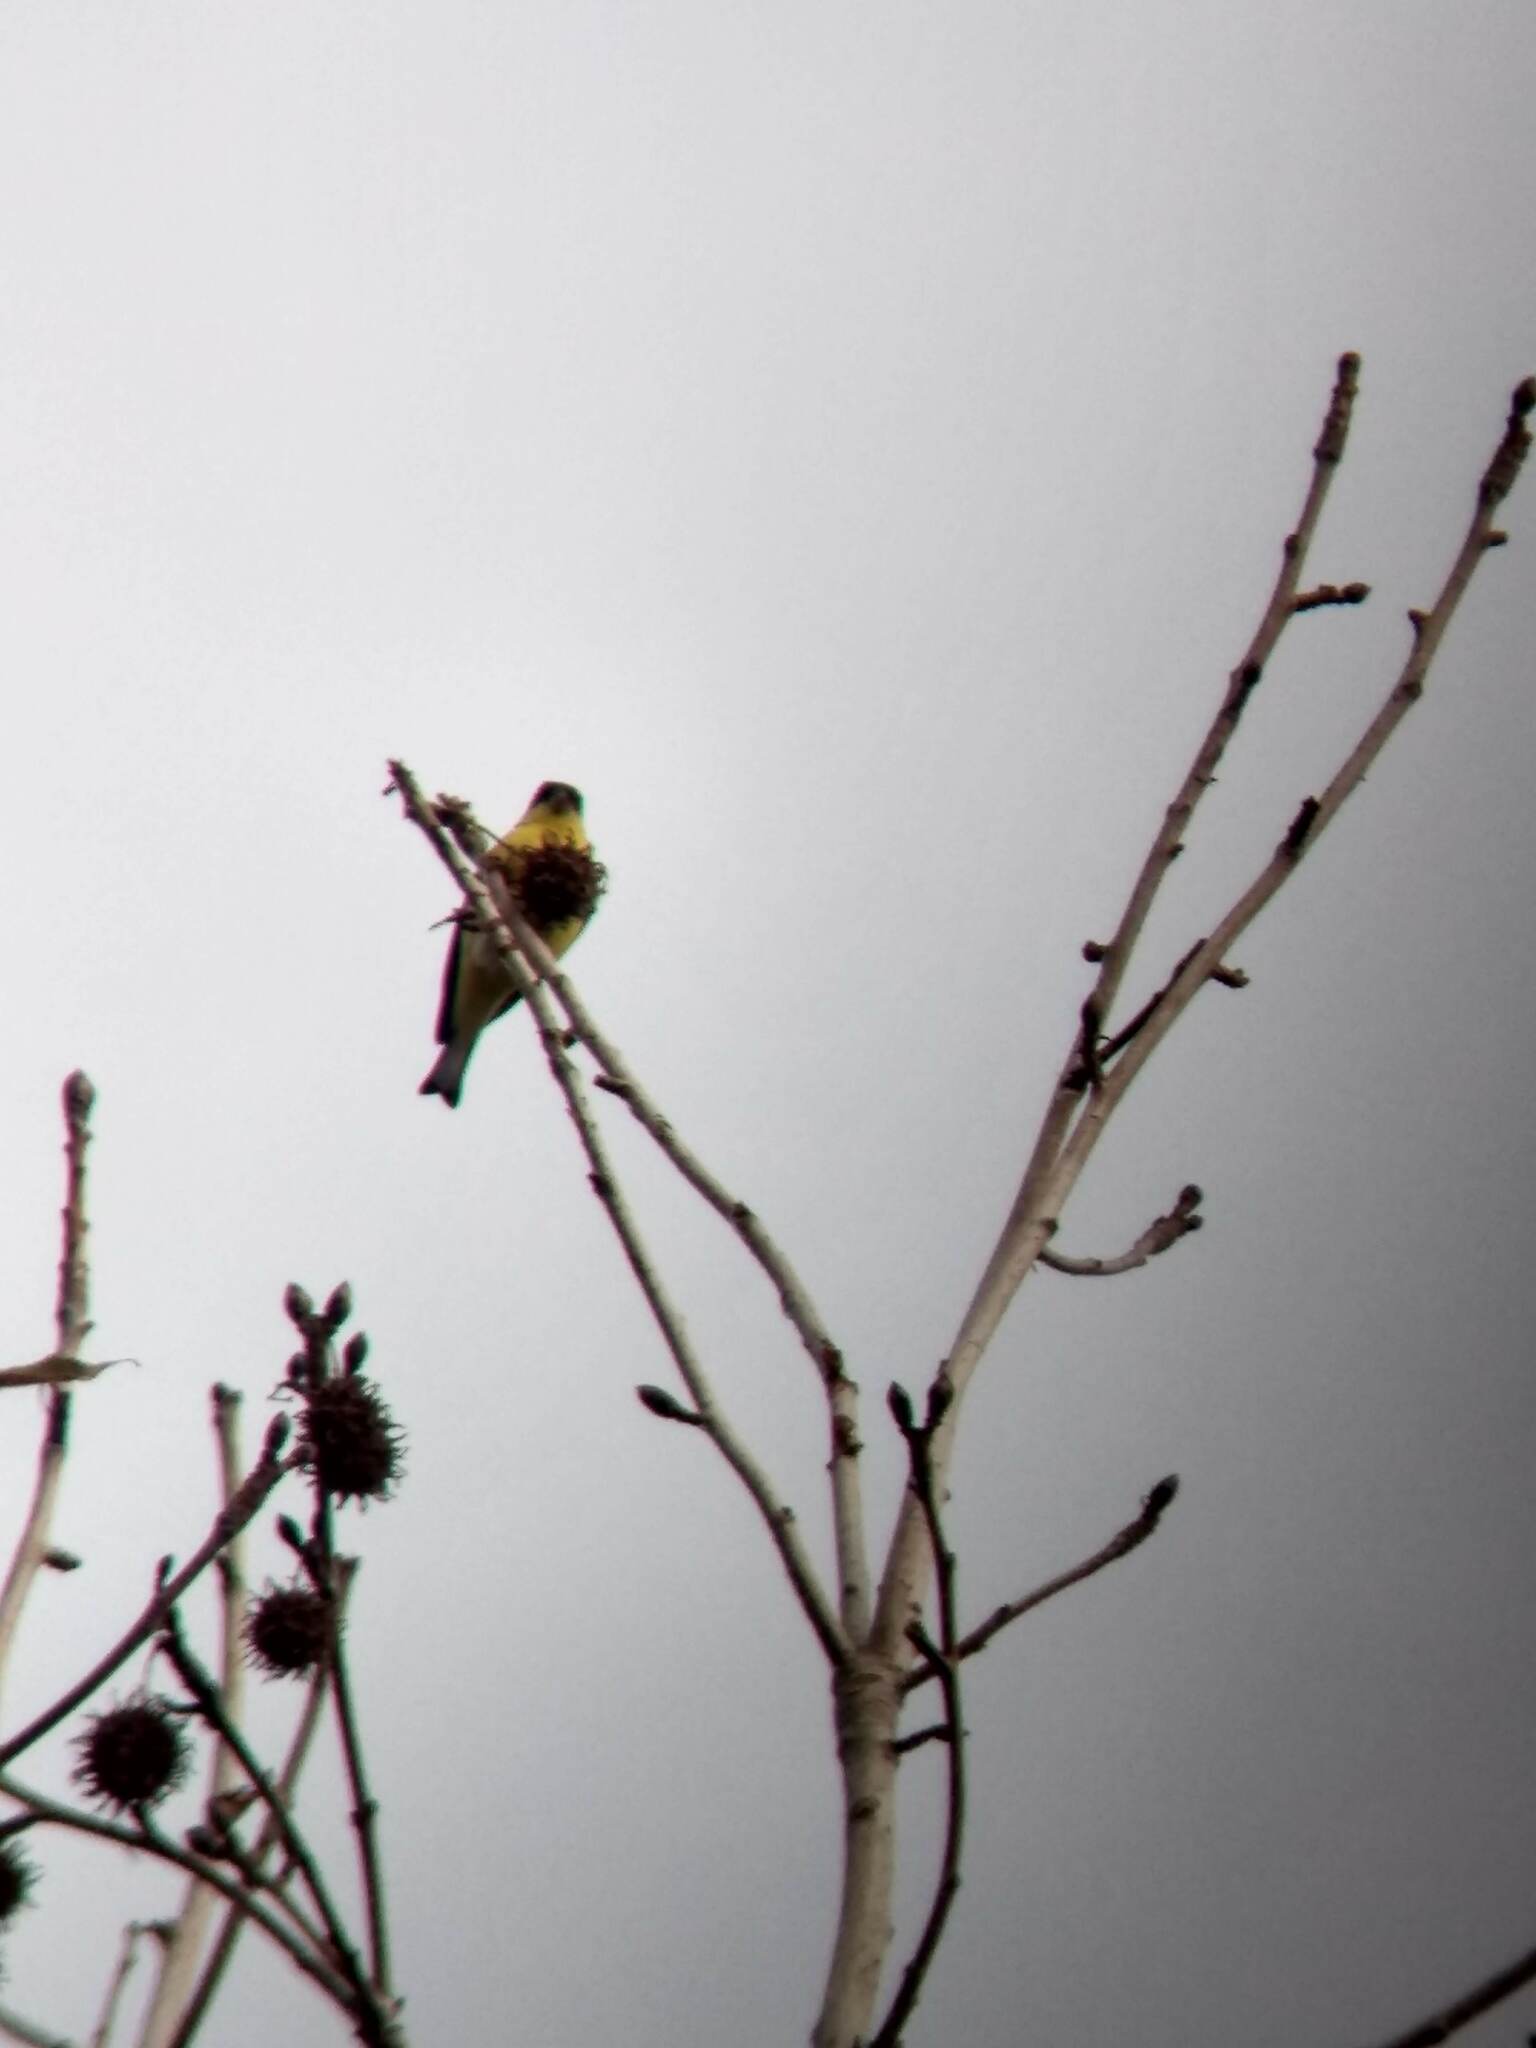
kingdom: Animalia
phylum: Chordata
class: Aves
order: Passeriformes
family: Fringillidae
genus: Spinus
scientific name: Spinus psaltria
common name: Lesser goldfinch
